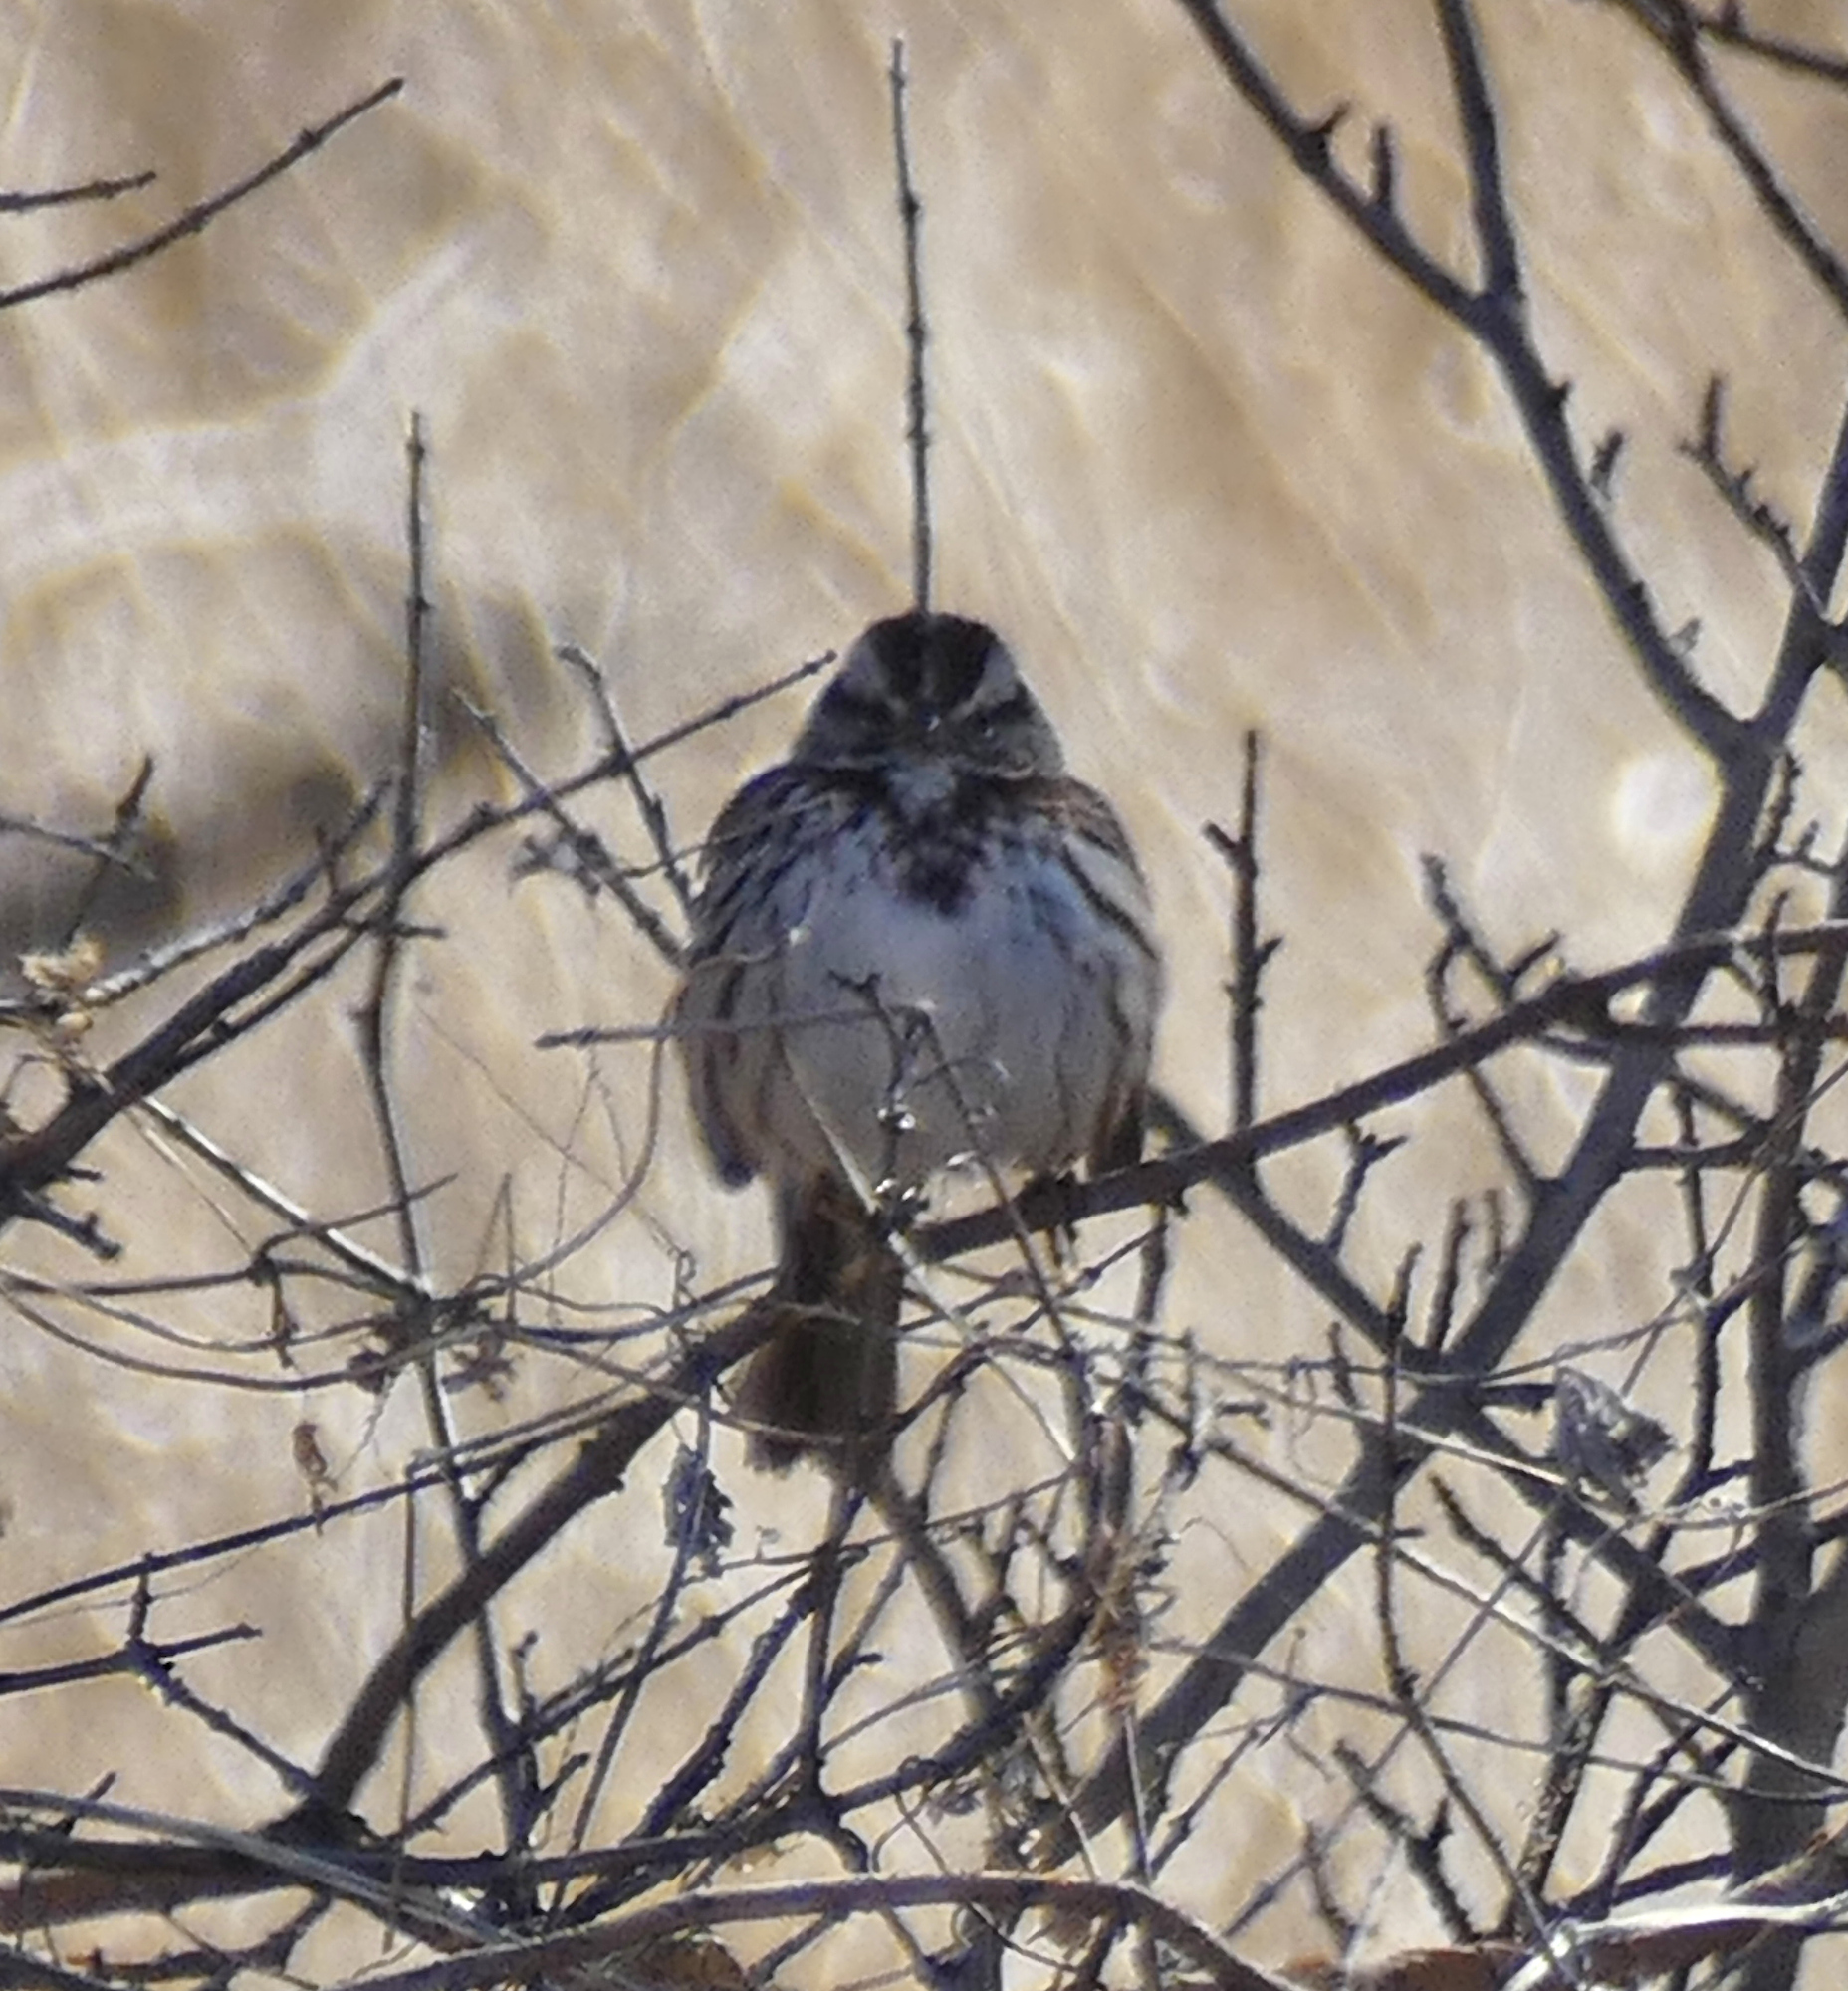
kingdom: Animalia
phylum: Chordata
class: Aves
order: Passeriformes
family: Passerellidae
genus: Melospiza
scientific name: Melospiza melodia
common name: Song sparrow
